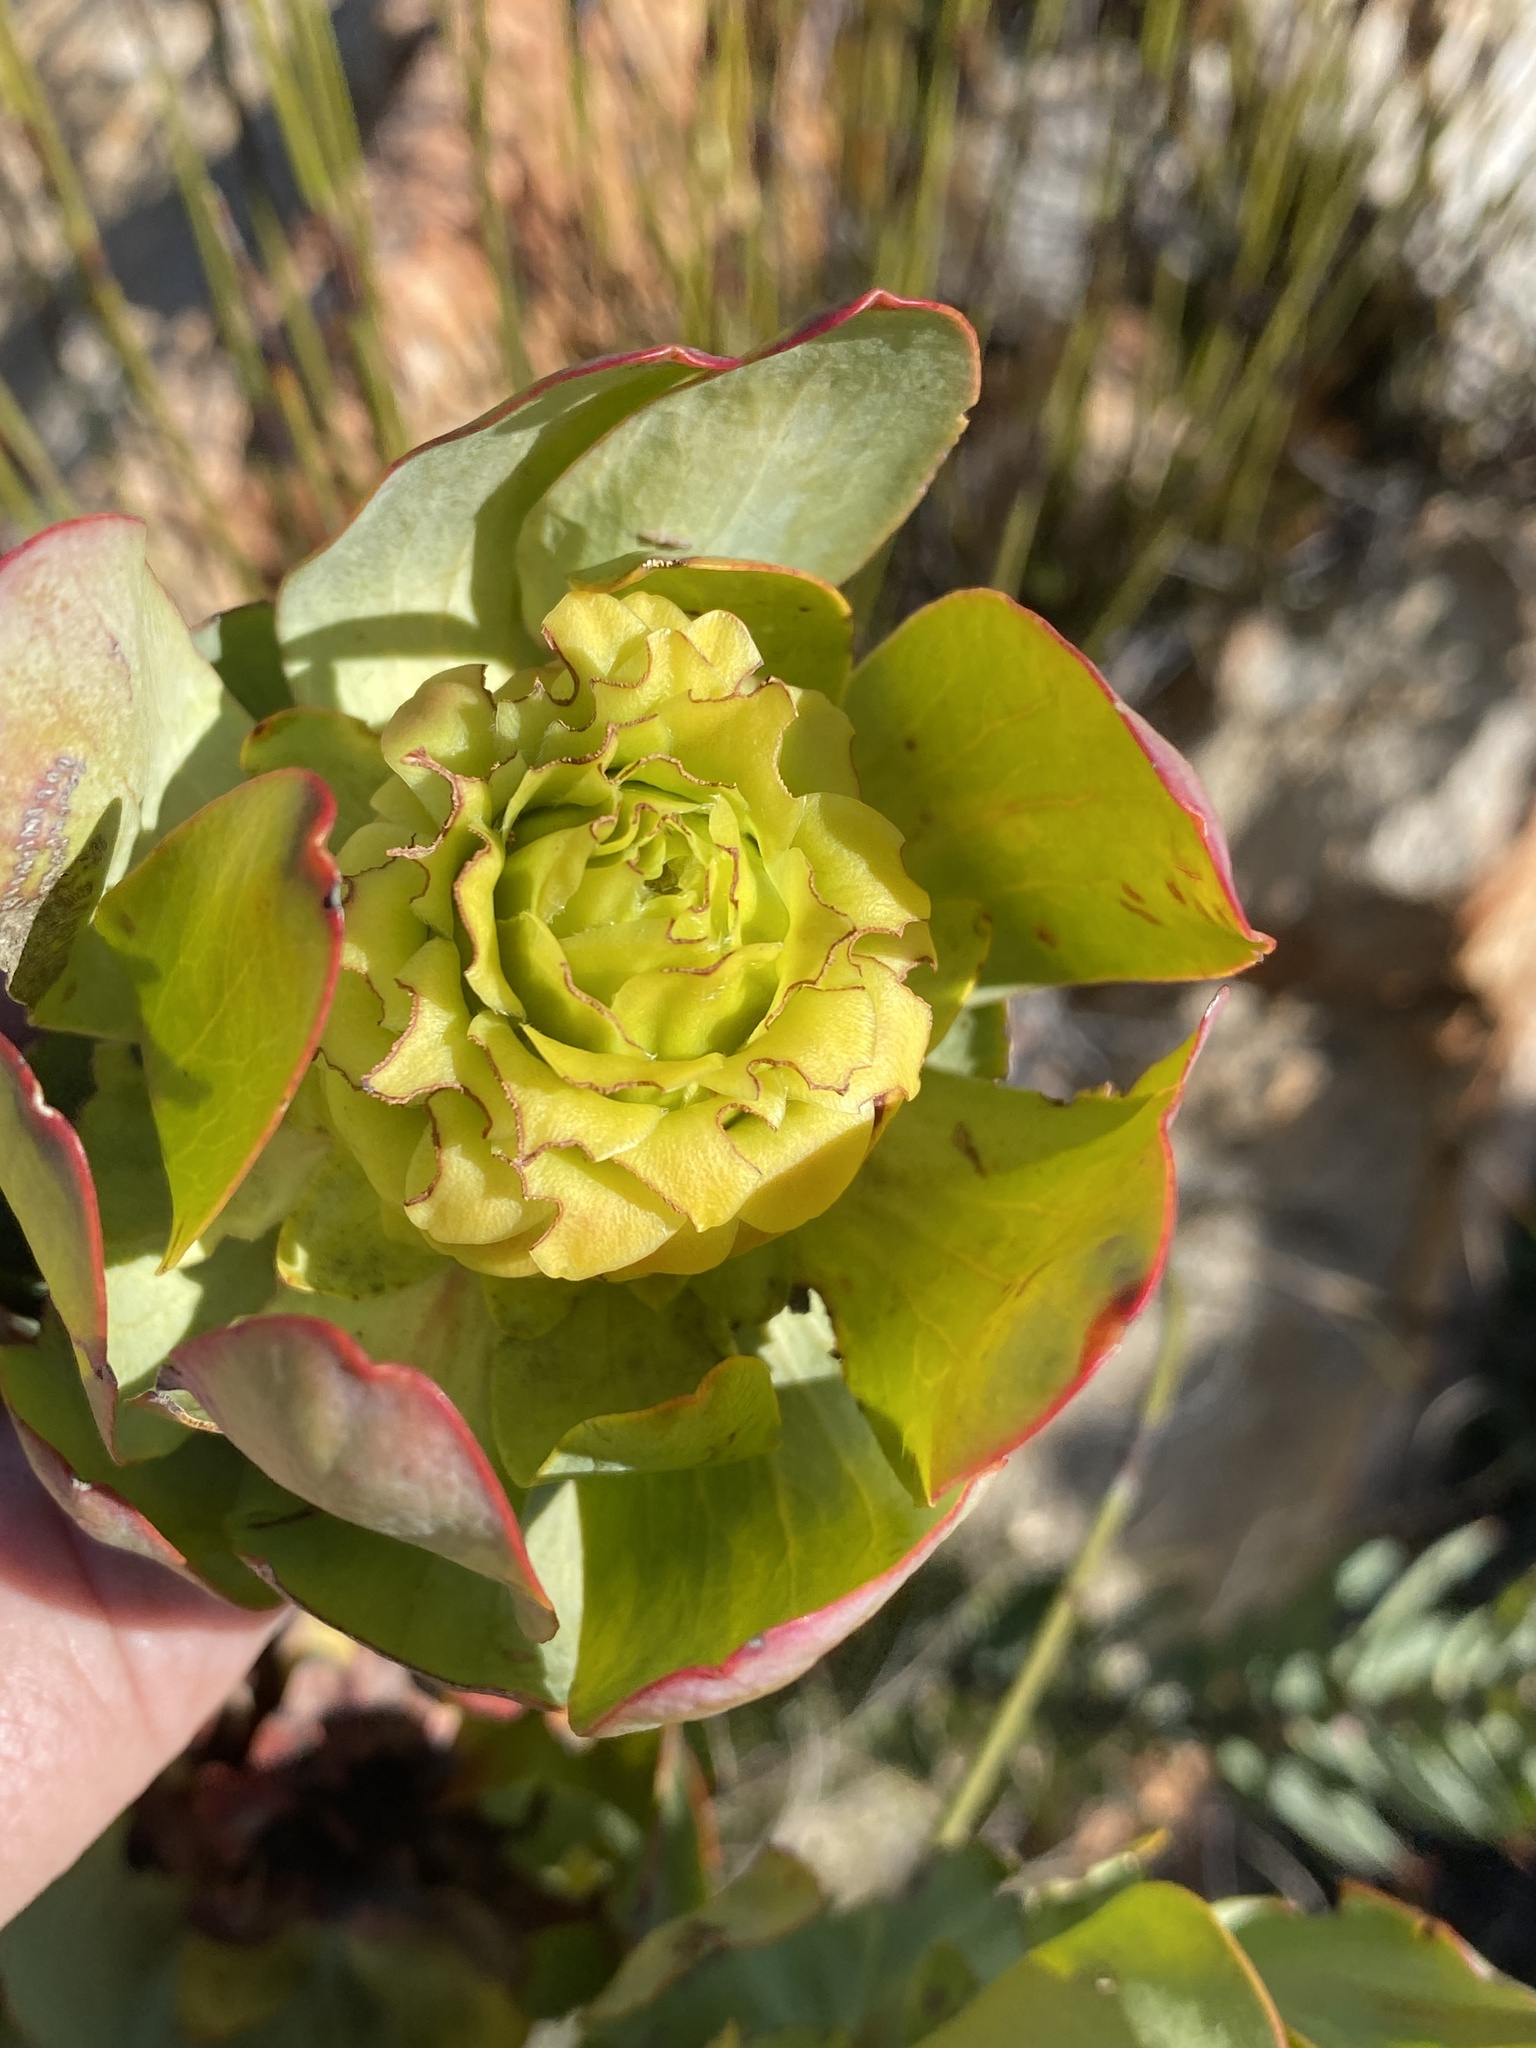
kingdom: Plantae
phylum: Tracheophyta
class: Magnoliopsida
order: Proteales
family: Proteaceae
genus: Leucadendron
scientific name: Leucadendron pubibracteolatum
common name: Purple-leaf conebush
